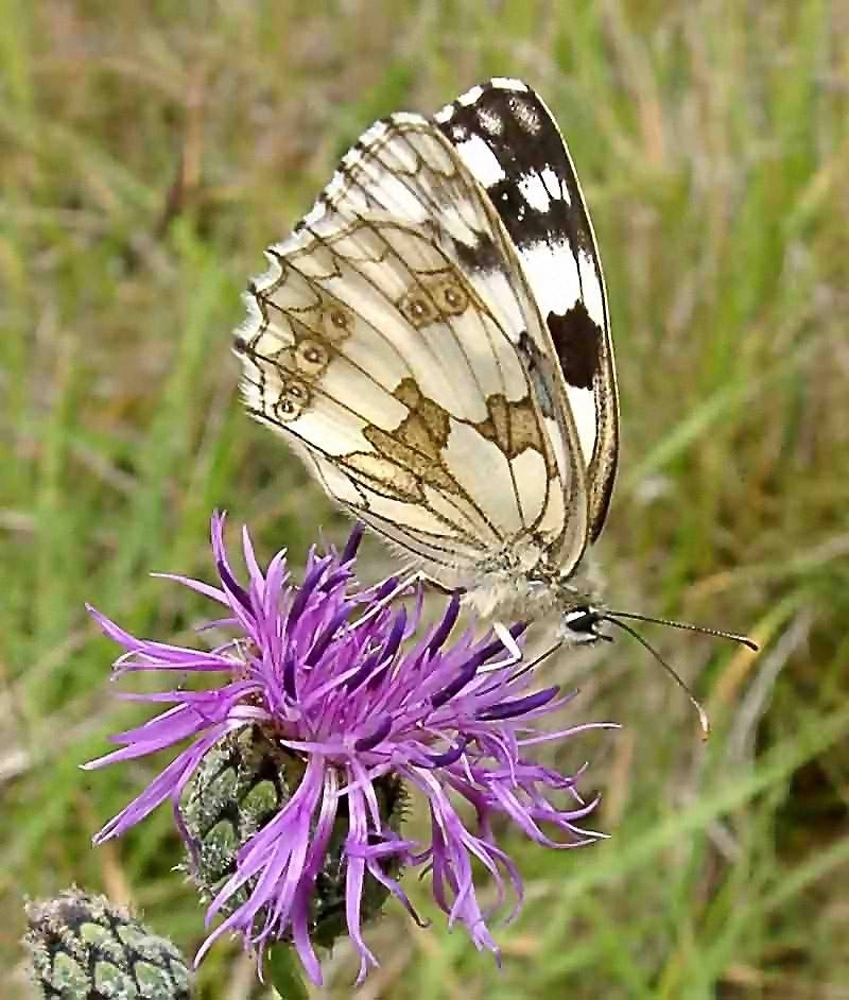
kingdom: Animalia
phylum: Arthropoda
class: Insecta
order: Lepidoptera
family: Nymphalidae
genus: Melanargia
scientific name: Melanargia galathea
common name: Marbled white
